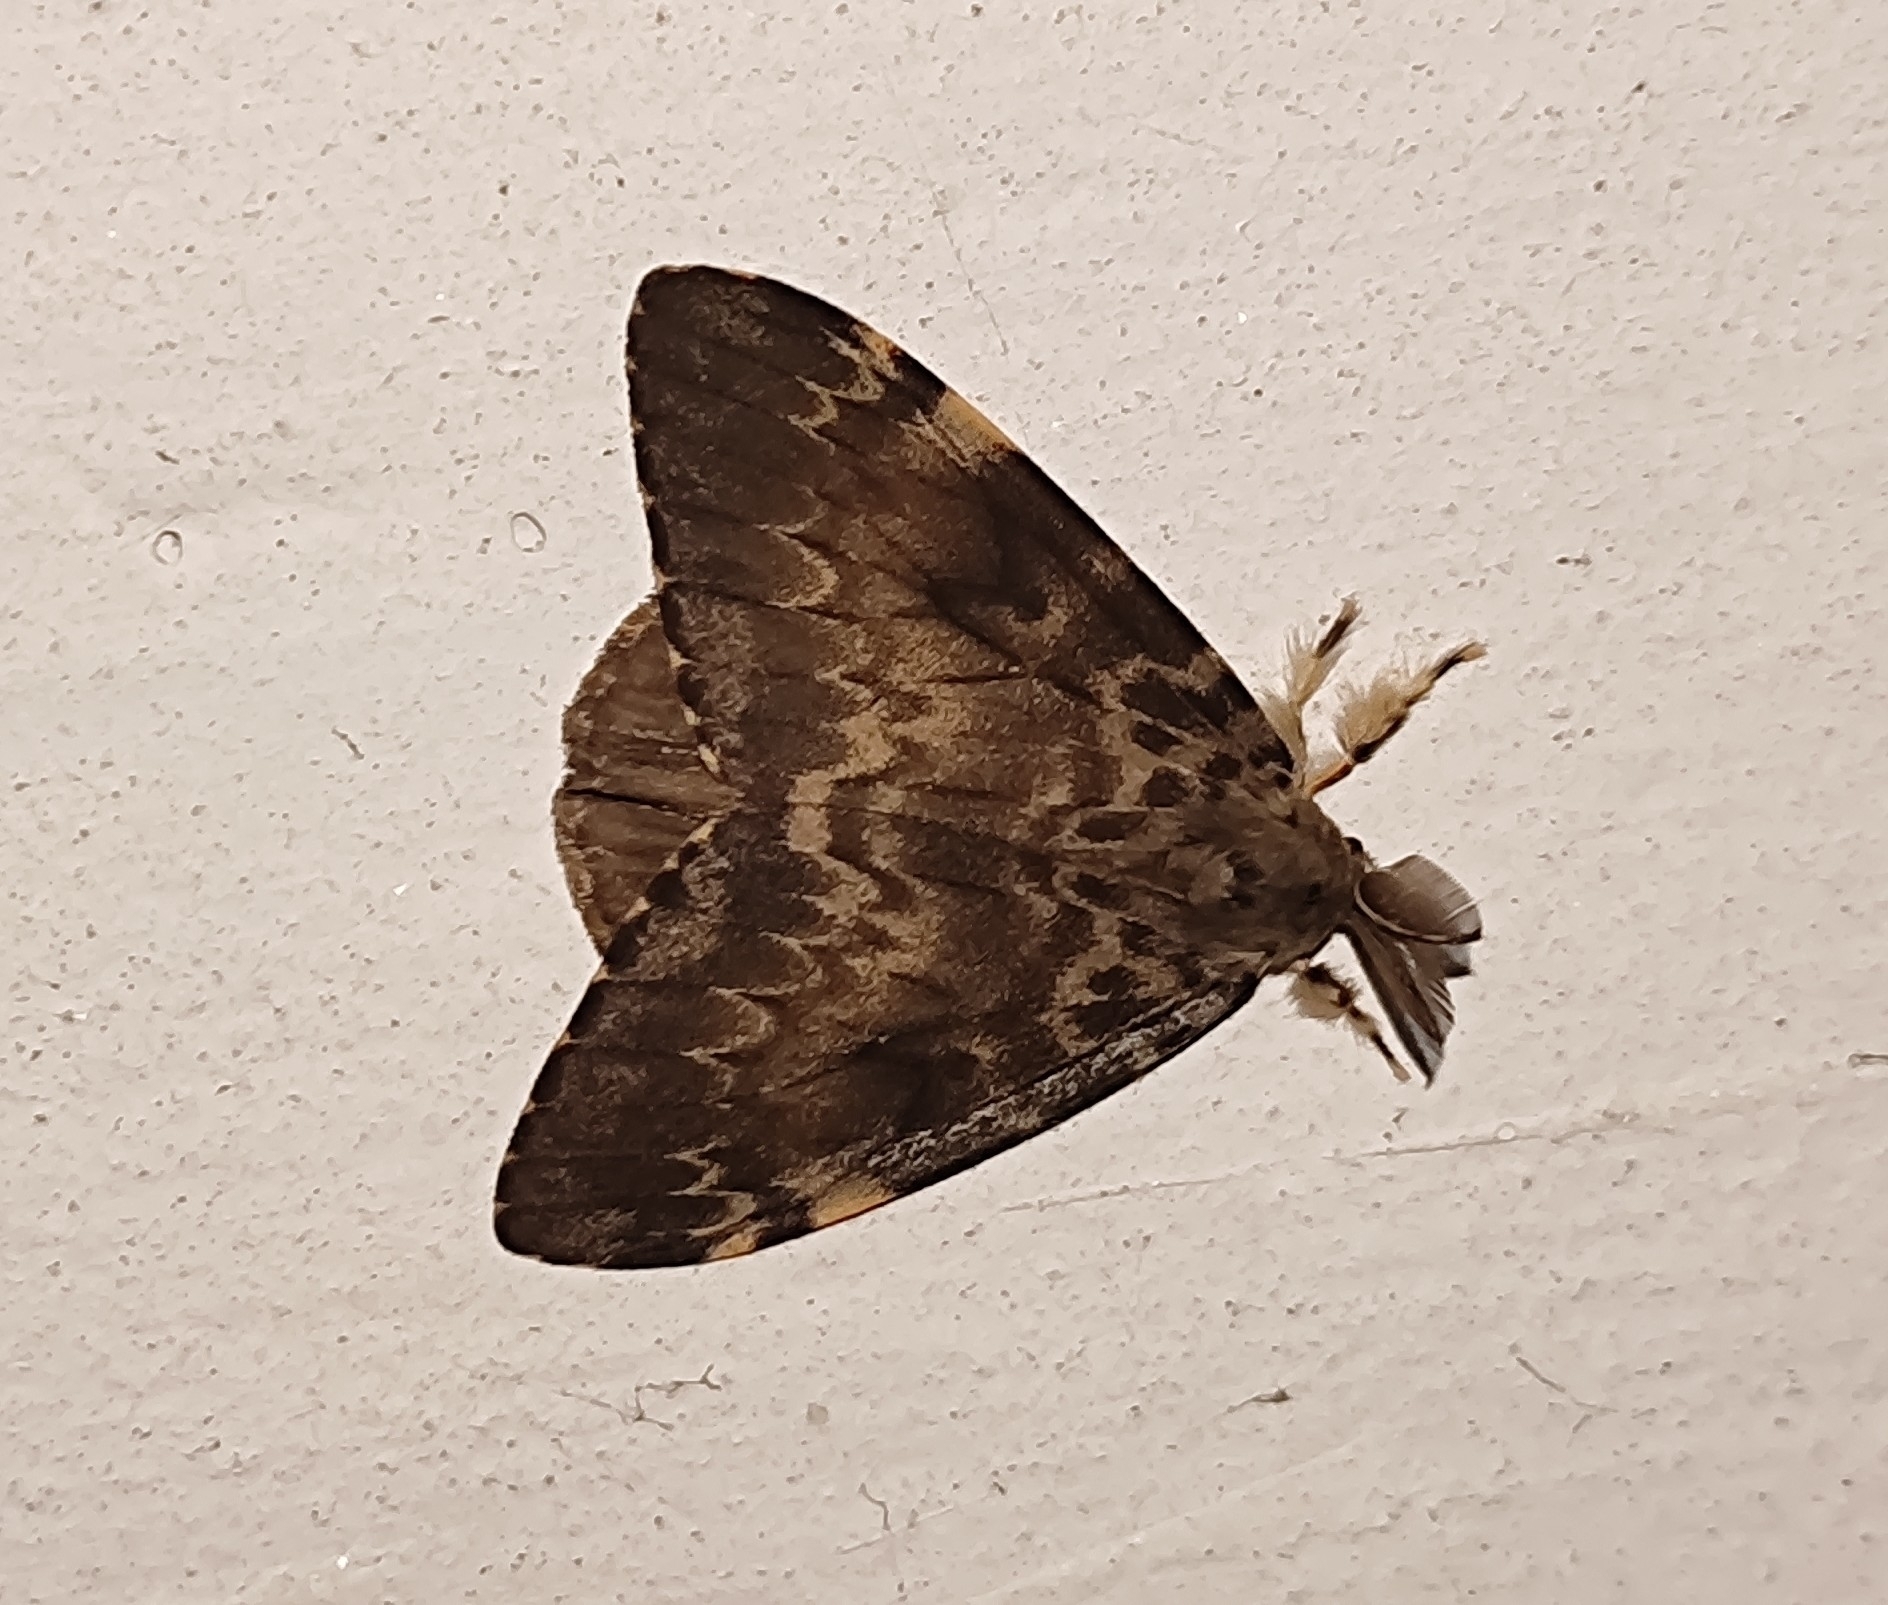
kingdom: Animalia
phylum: Arthropoda
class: Insecta
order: Lepidoptera
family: Erebidae
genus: Lymantria
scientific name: Lymantria ampla
